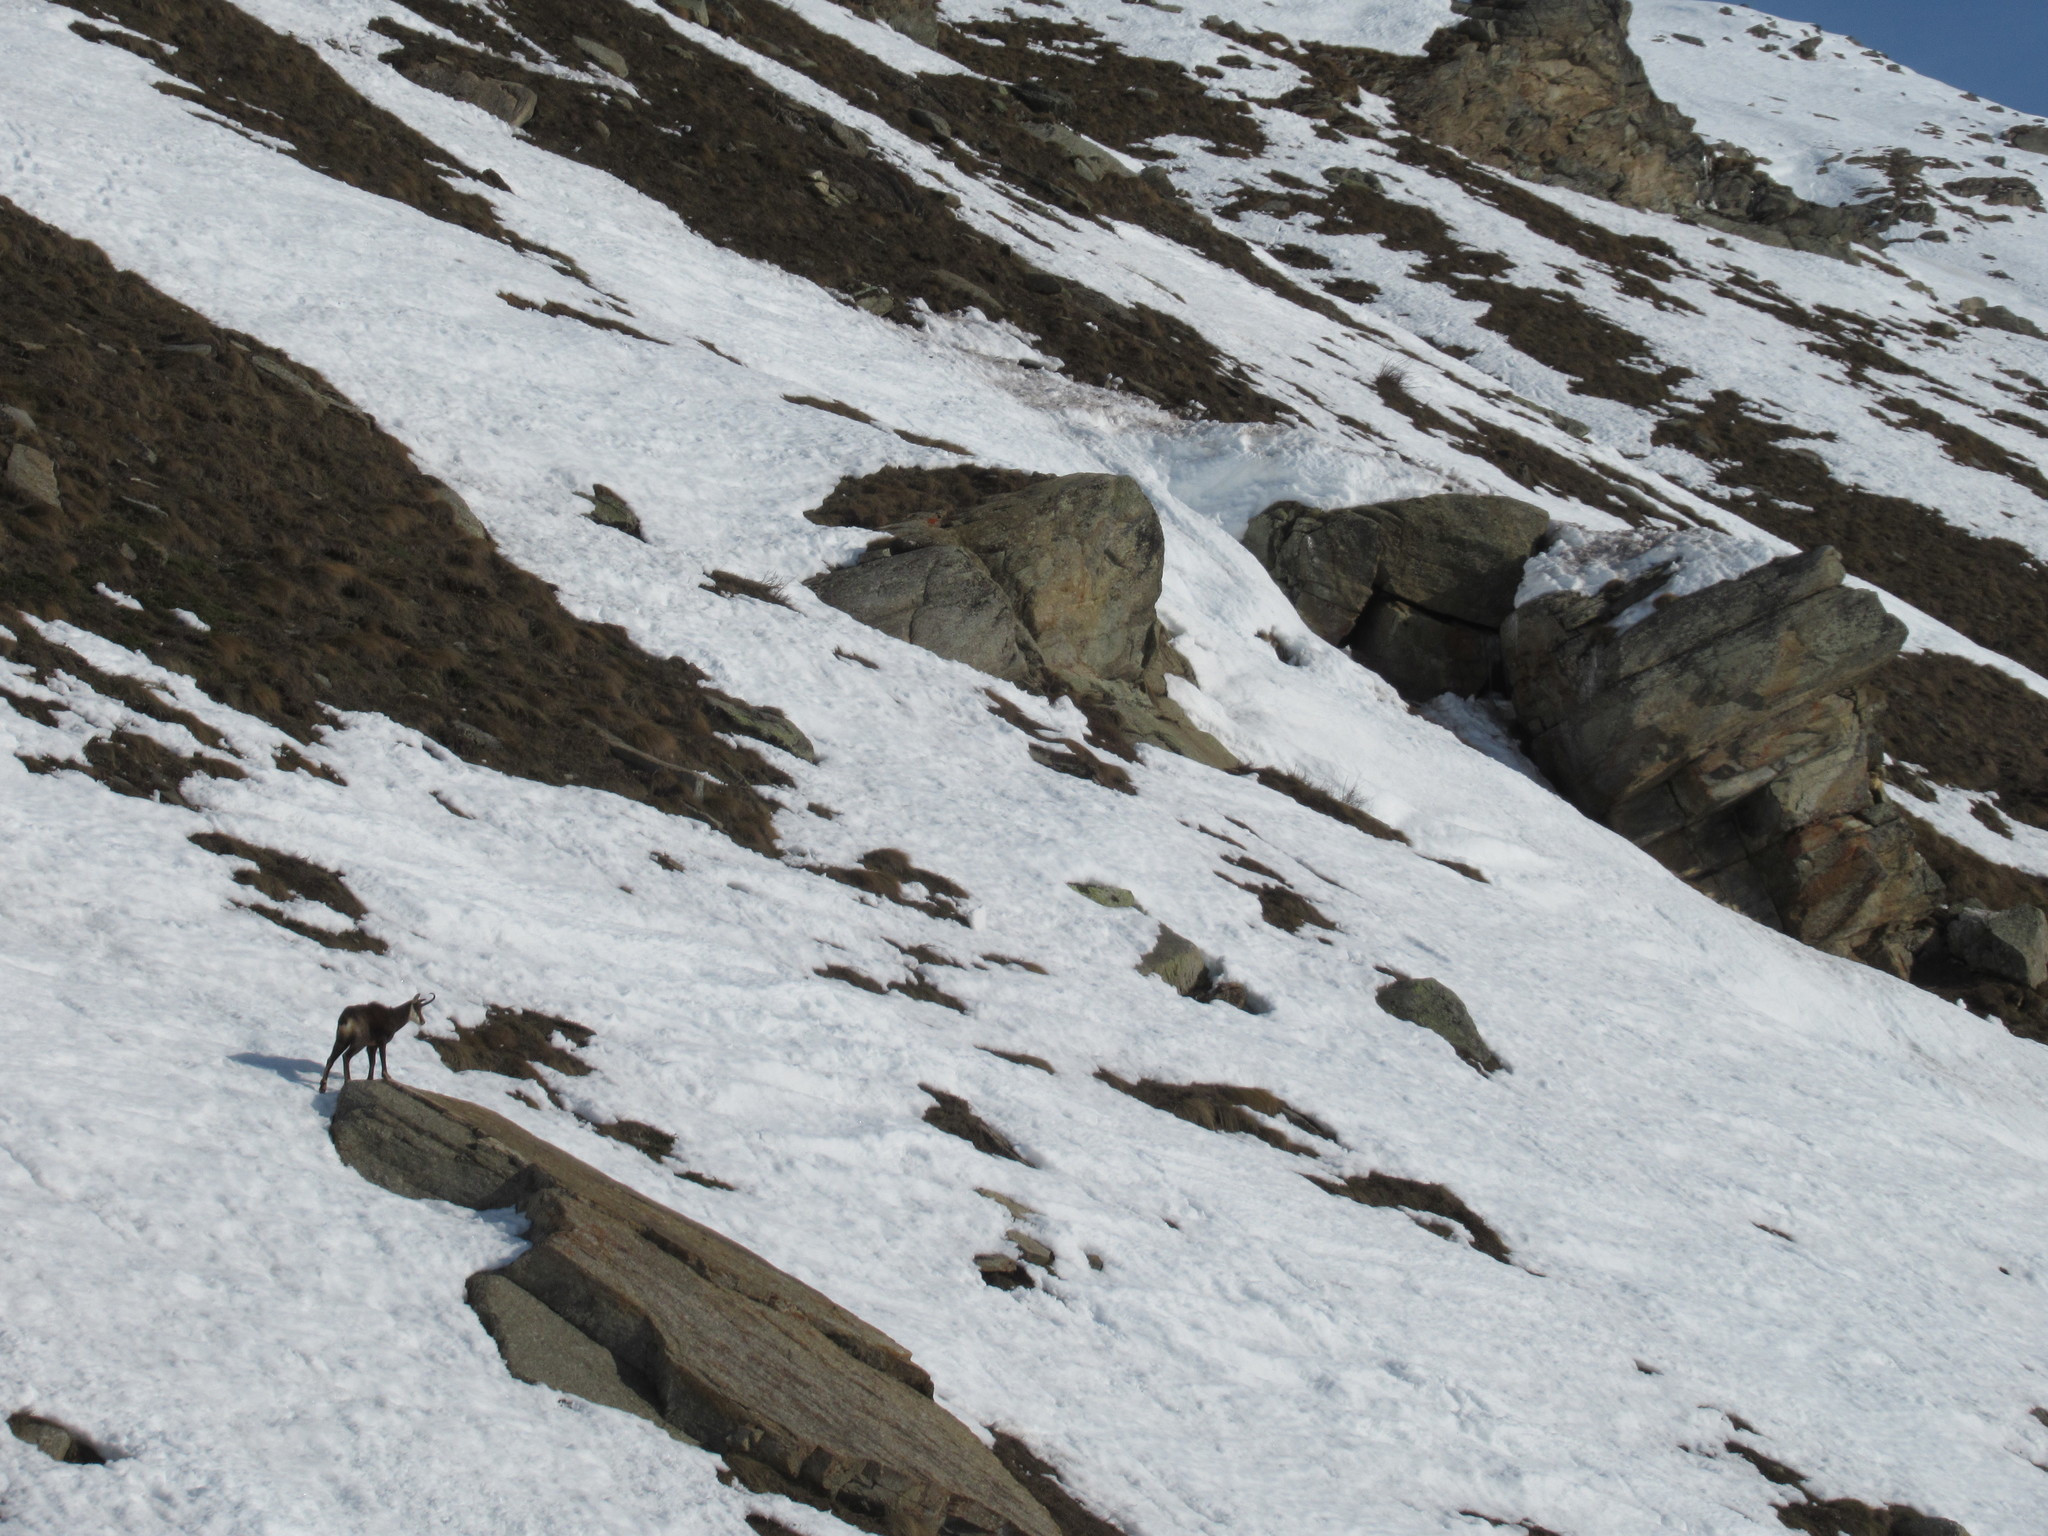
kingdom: Animalia
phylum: Chordata
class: Mammalia
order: Artiodactyla
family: Bovidae
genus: Rupicapra
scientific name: Rupicapra rupicapra
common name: Chamois
